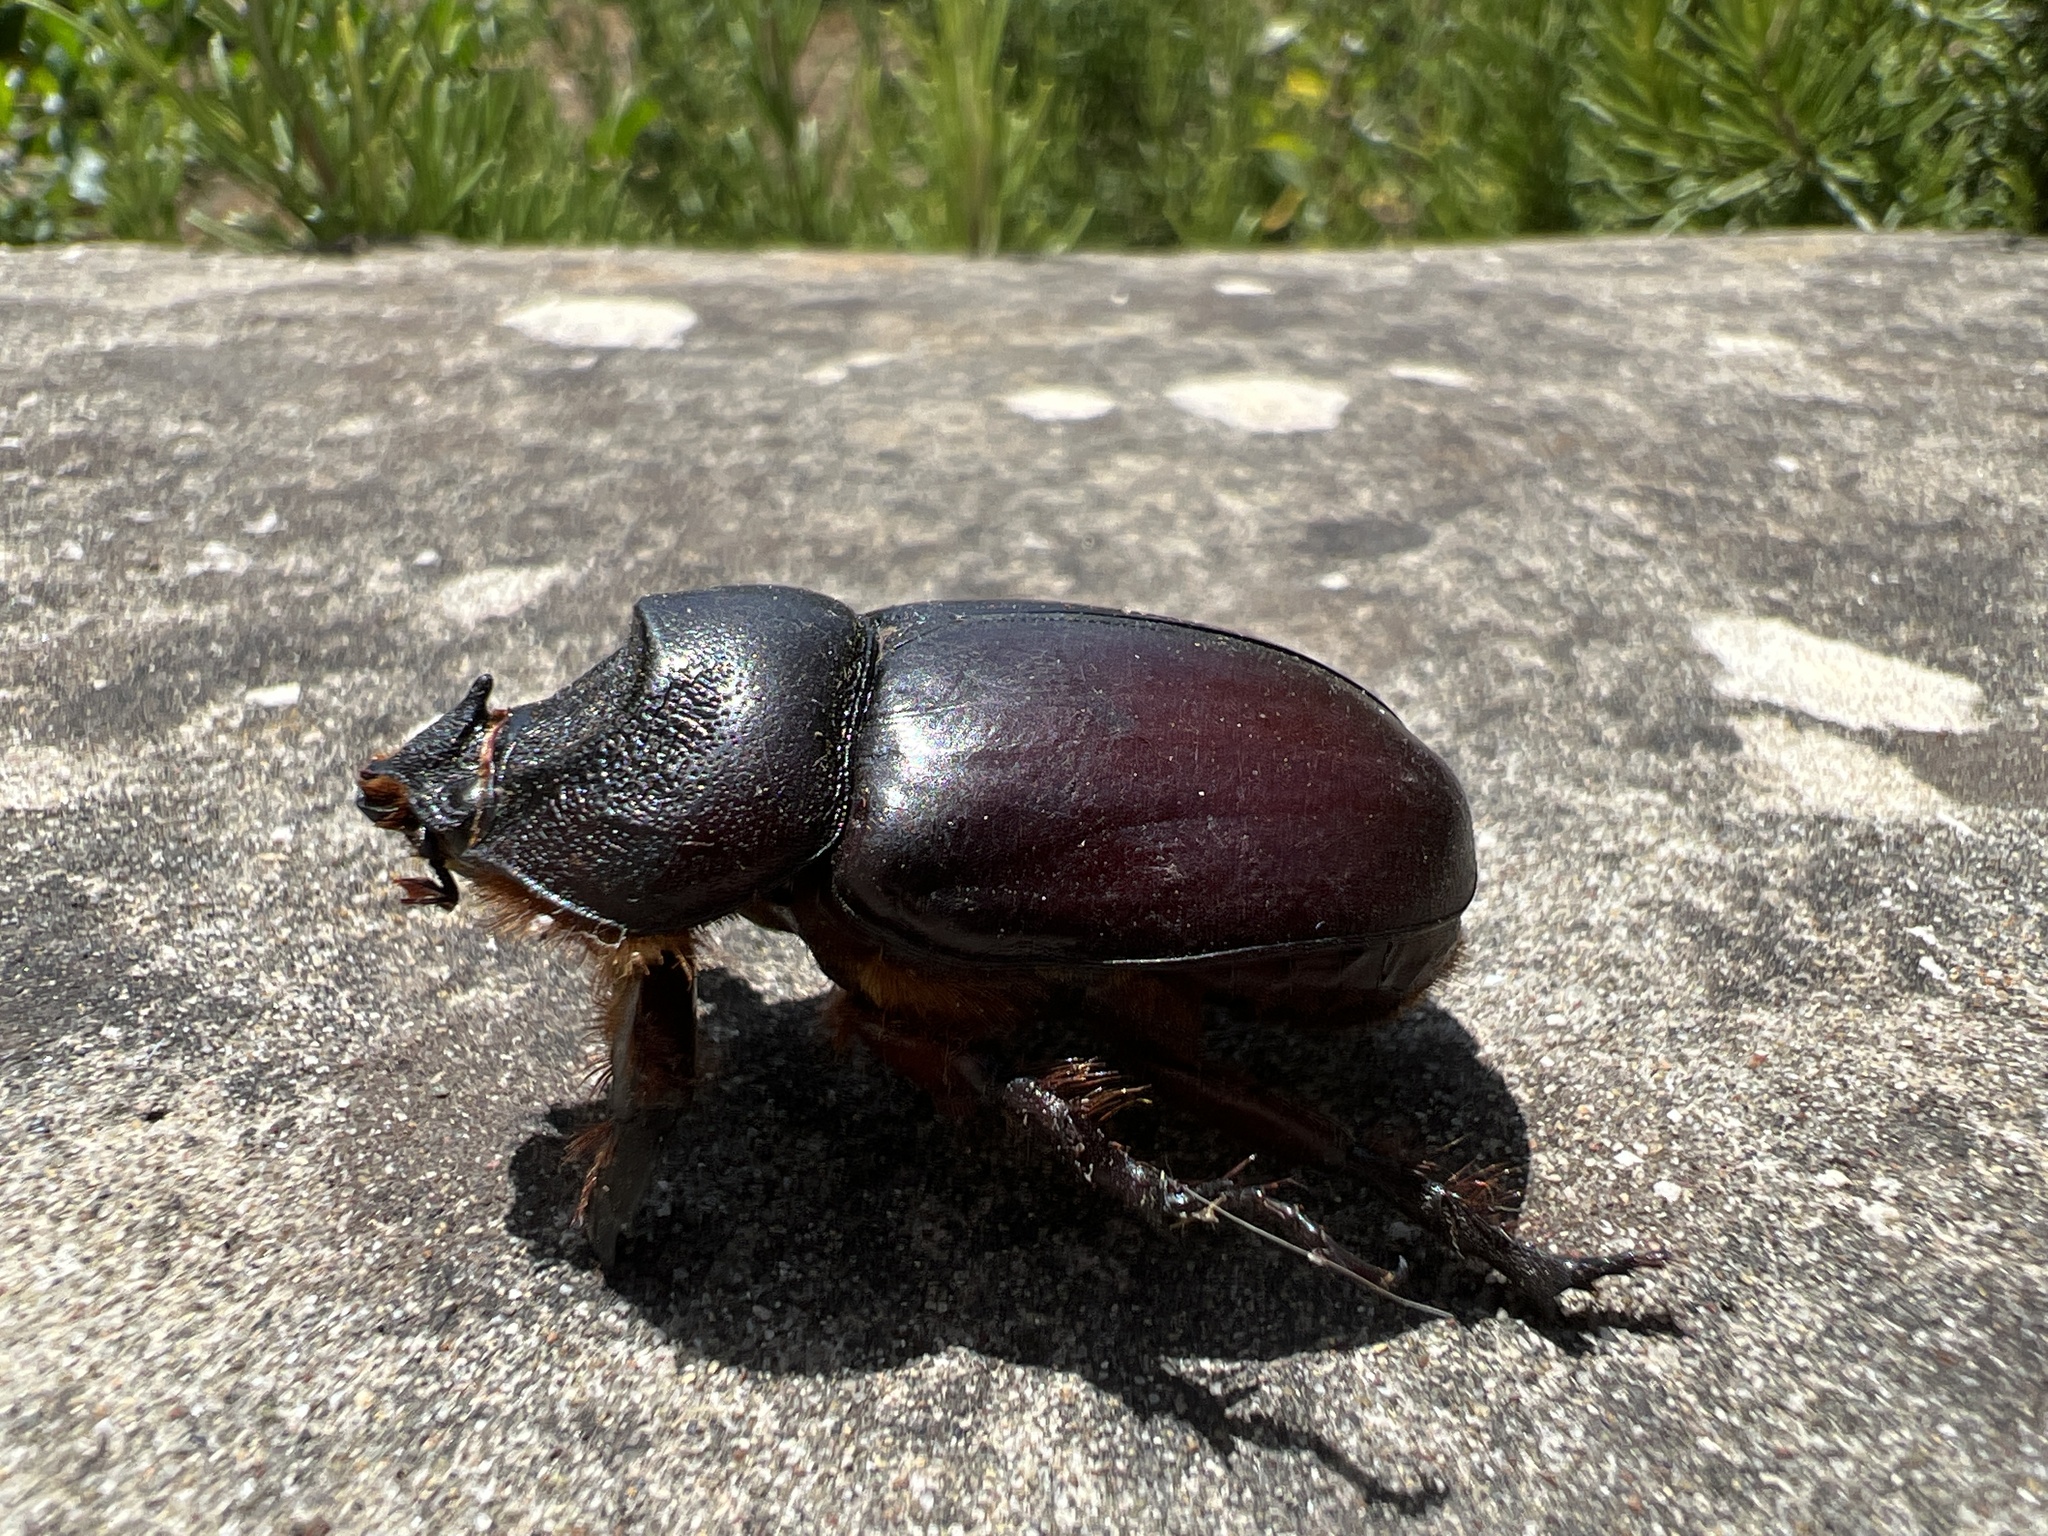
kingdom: Animalia
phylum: Arthropoda
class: Insecta
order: Coleoptera
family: Scarabaeidae
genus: Oryctes
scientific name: Oryctes nasicornis
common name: European rhinoceros beetle
